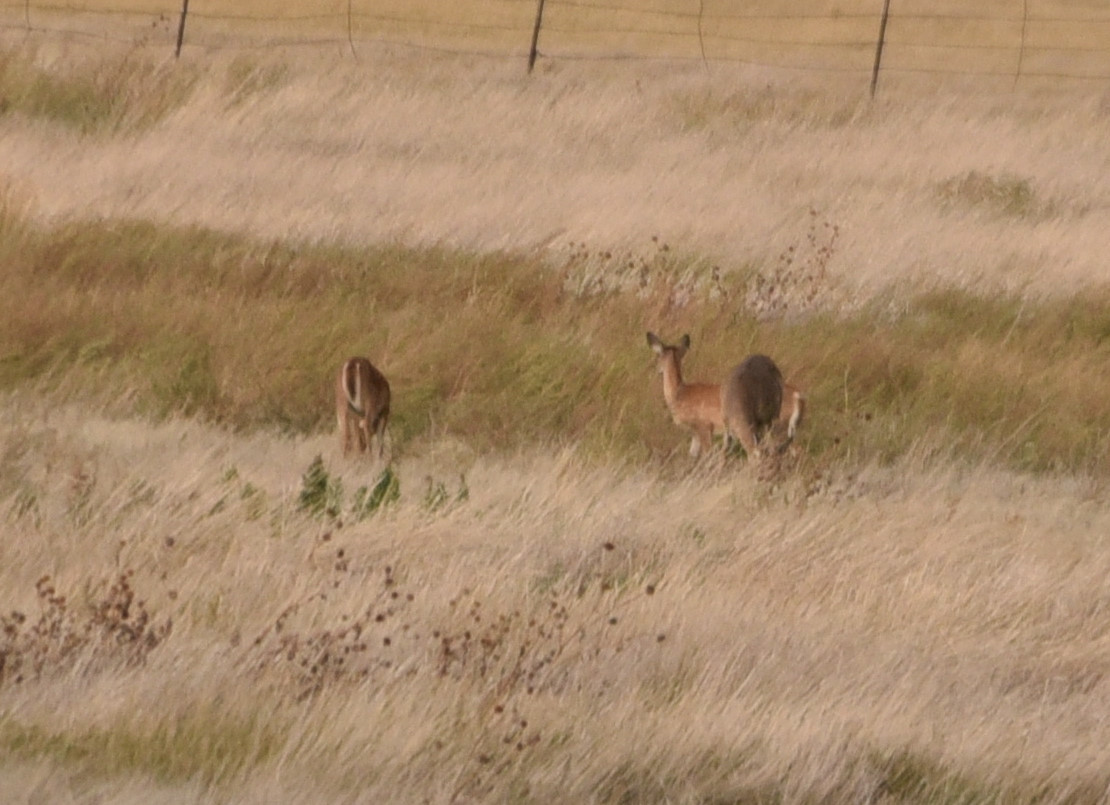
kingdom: Animalia
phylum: Chordata
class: Mammalia
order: Artiodactyla
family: Cervidae
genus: Odocoileus
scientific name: Odocoileus virginianus
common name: White-tailed deer
